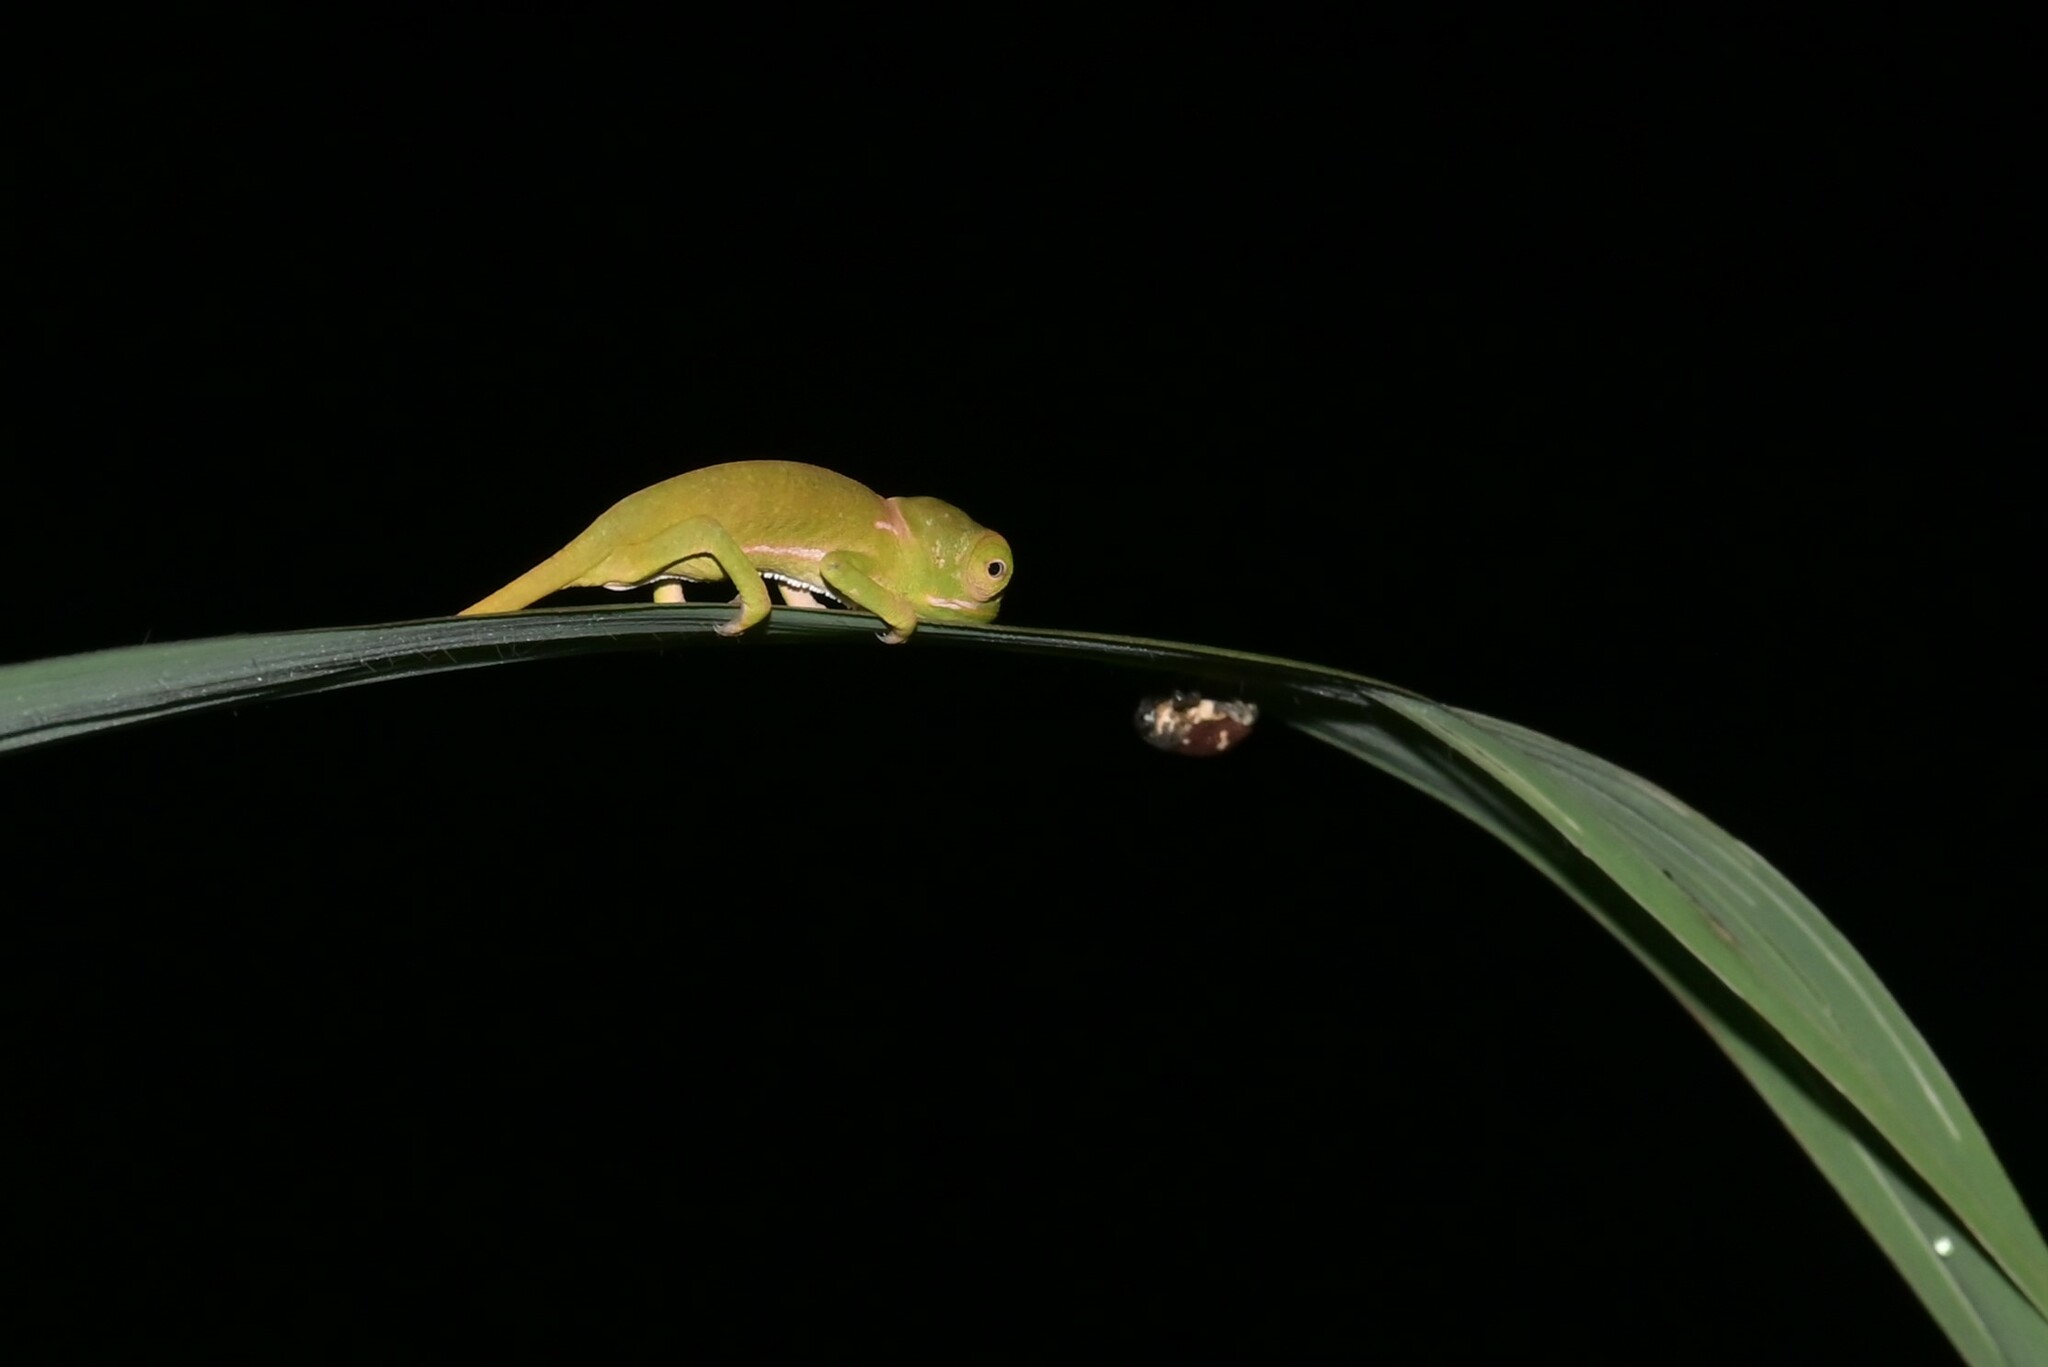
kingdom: Animalia
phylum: Chordata
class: Squamata
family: Chamaeleonidae
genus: Chamaeleo
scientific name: Chamaeleo dilepis
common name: Flapneck chameleon
